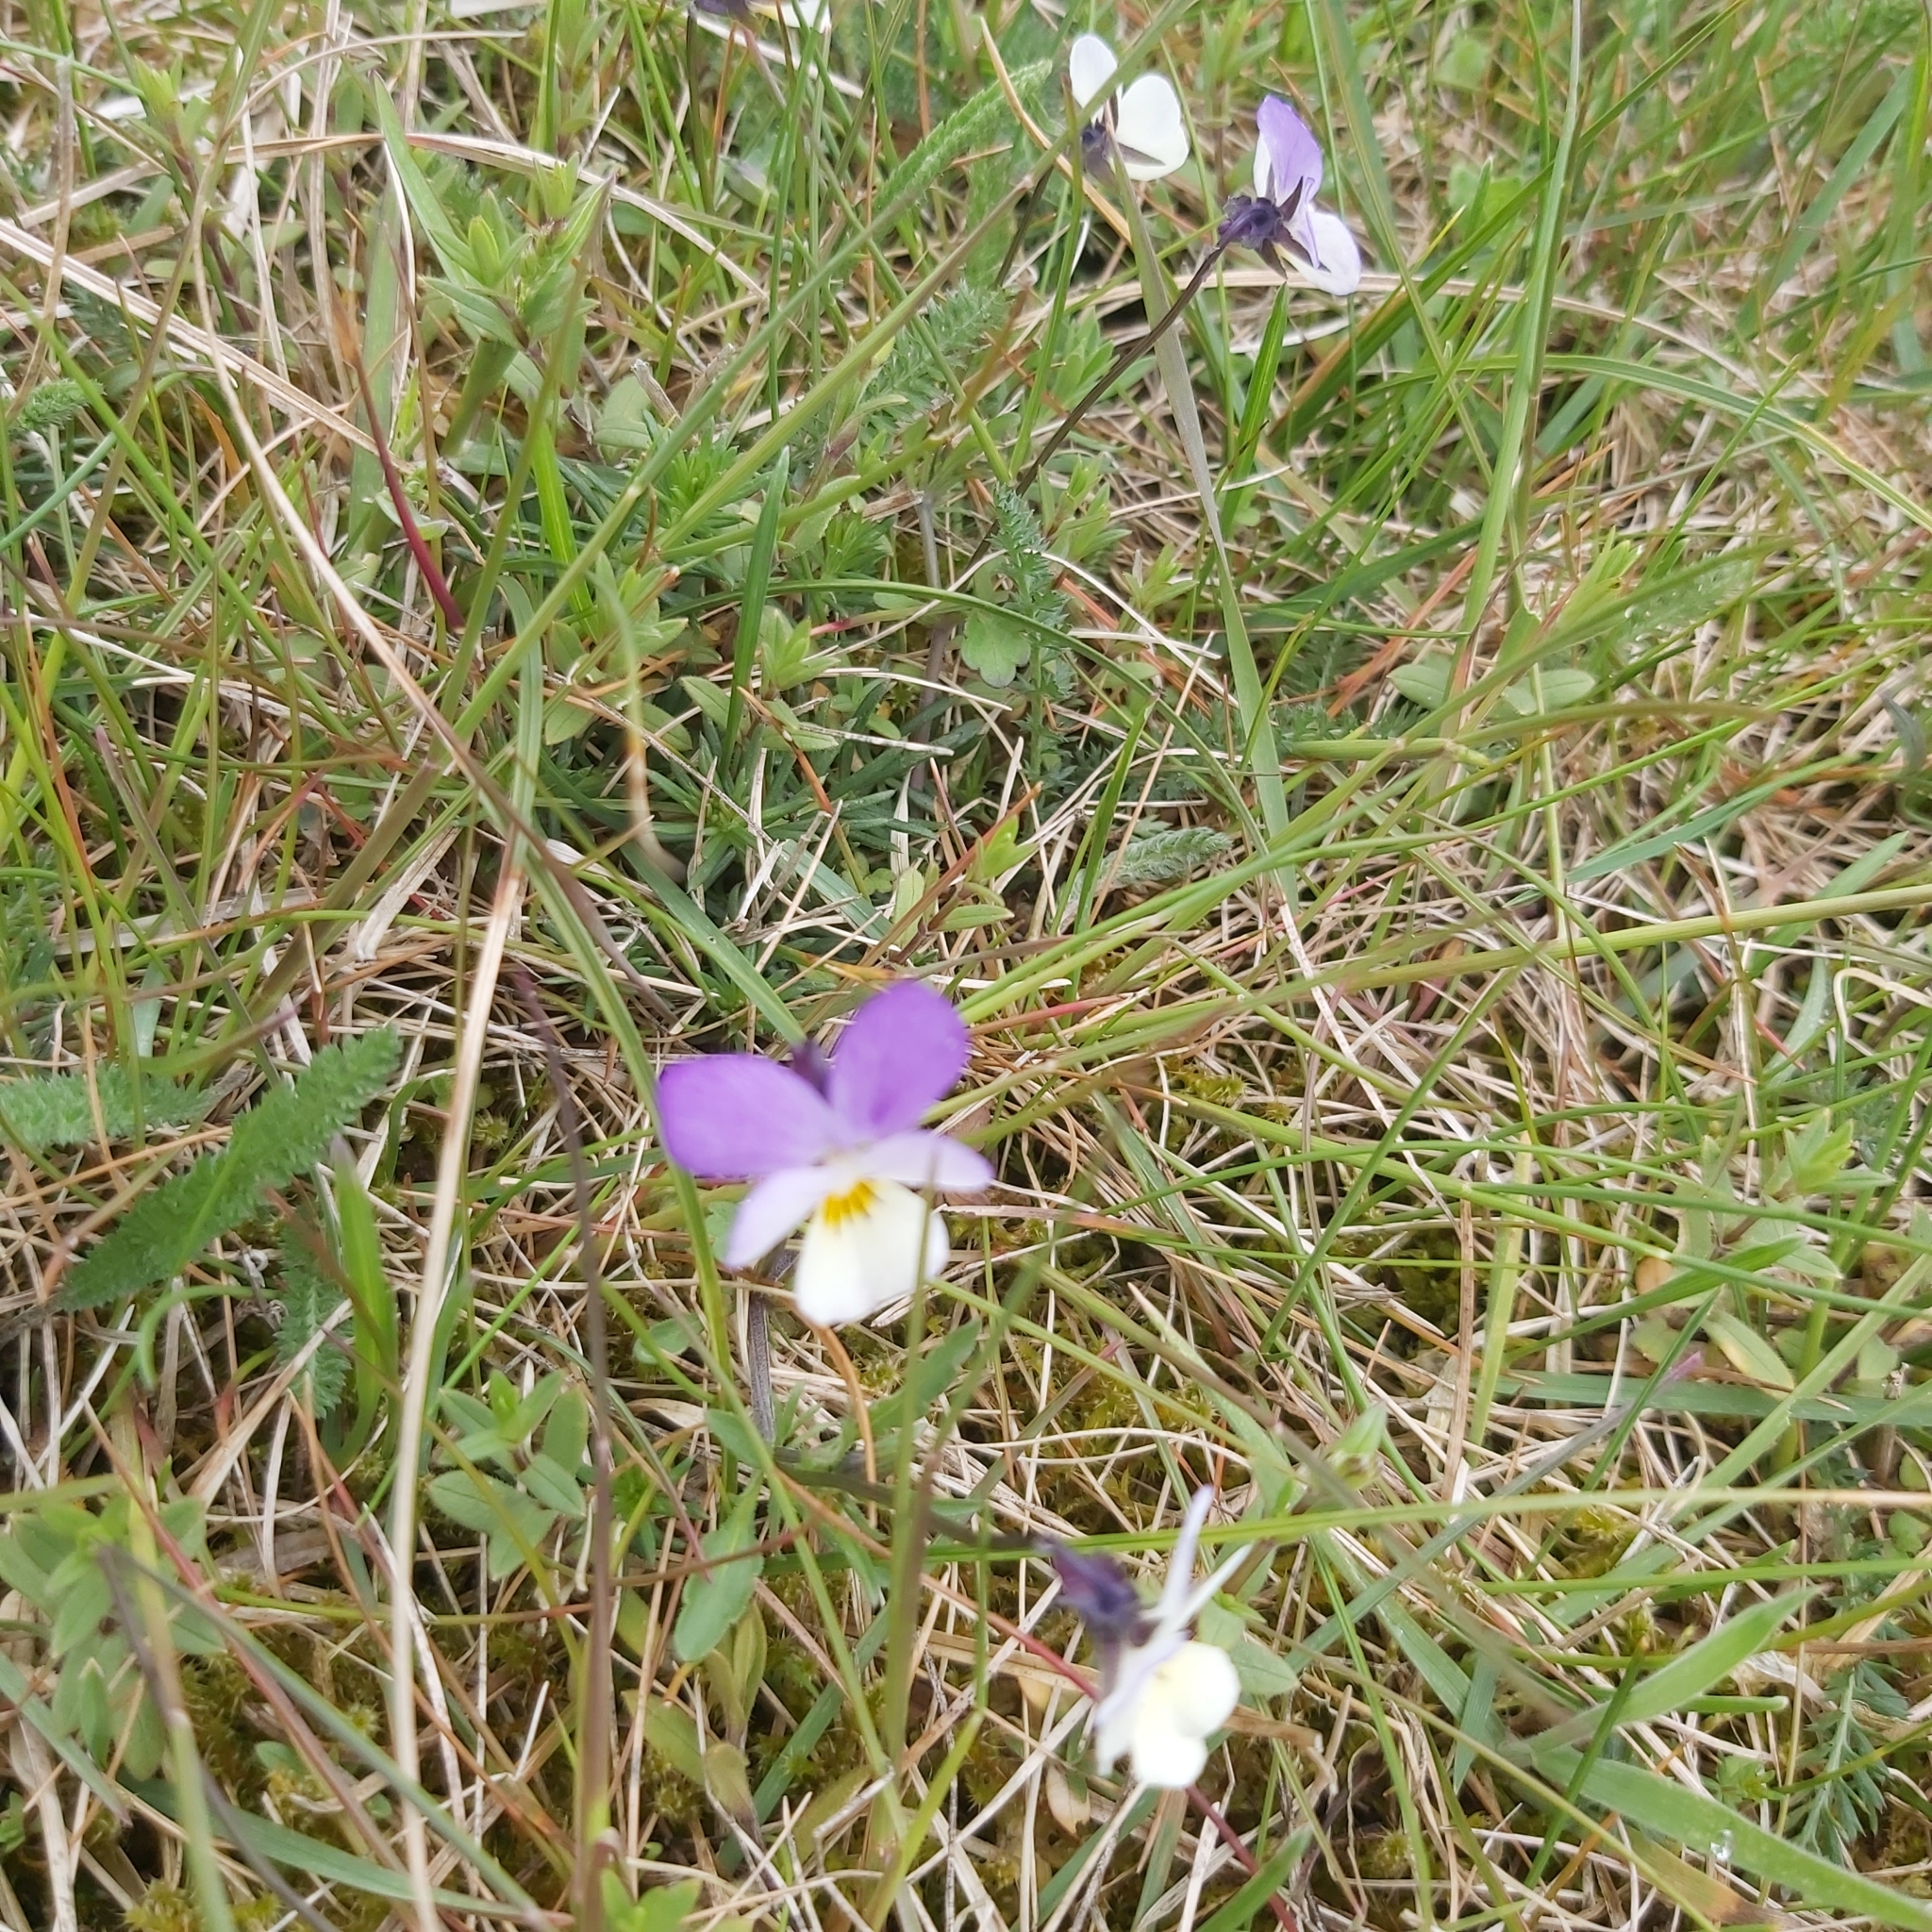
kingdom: Plantae
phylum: Tracheophyta
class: Magnoliopsida
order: Malpighiales
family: Violaceae
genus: Viola
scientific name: Viola tricolor
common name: Pansy
